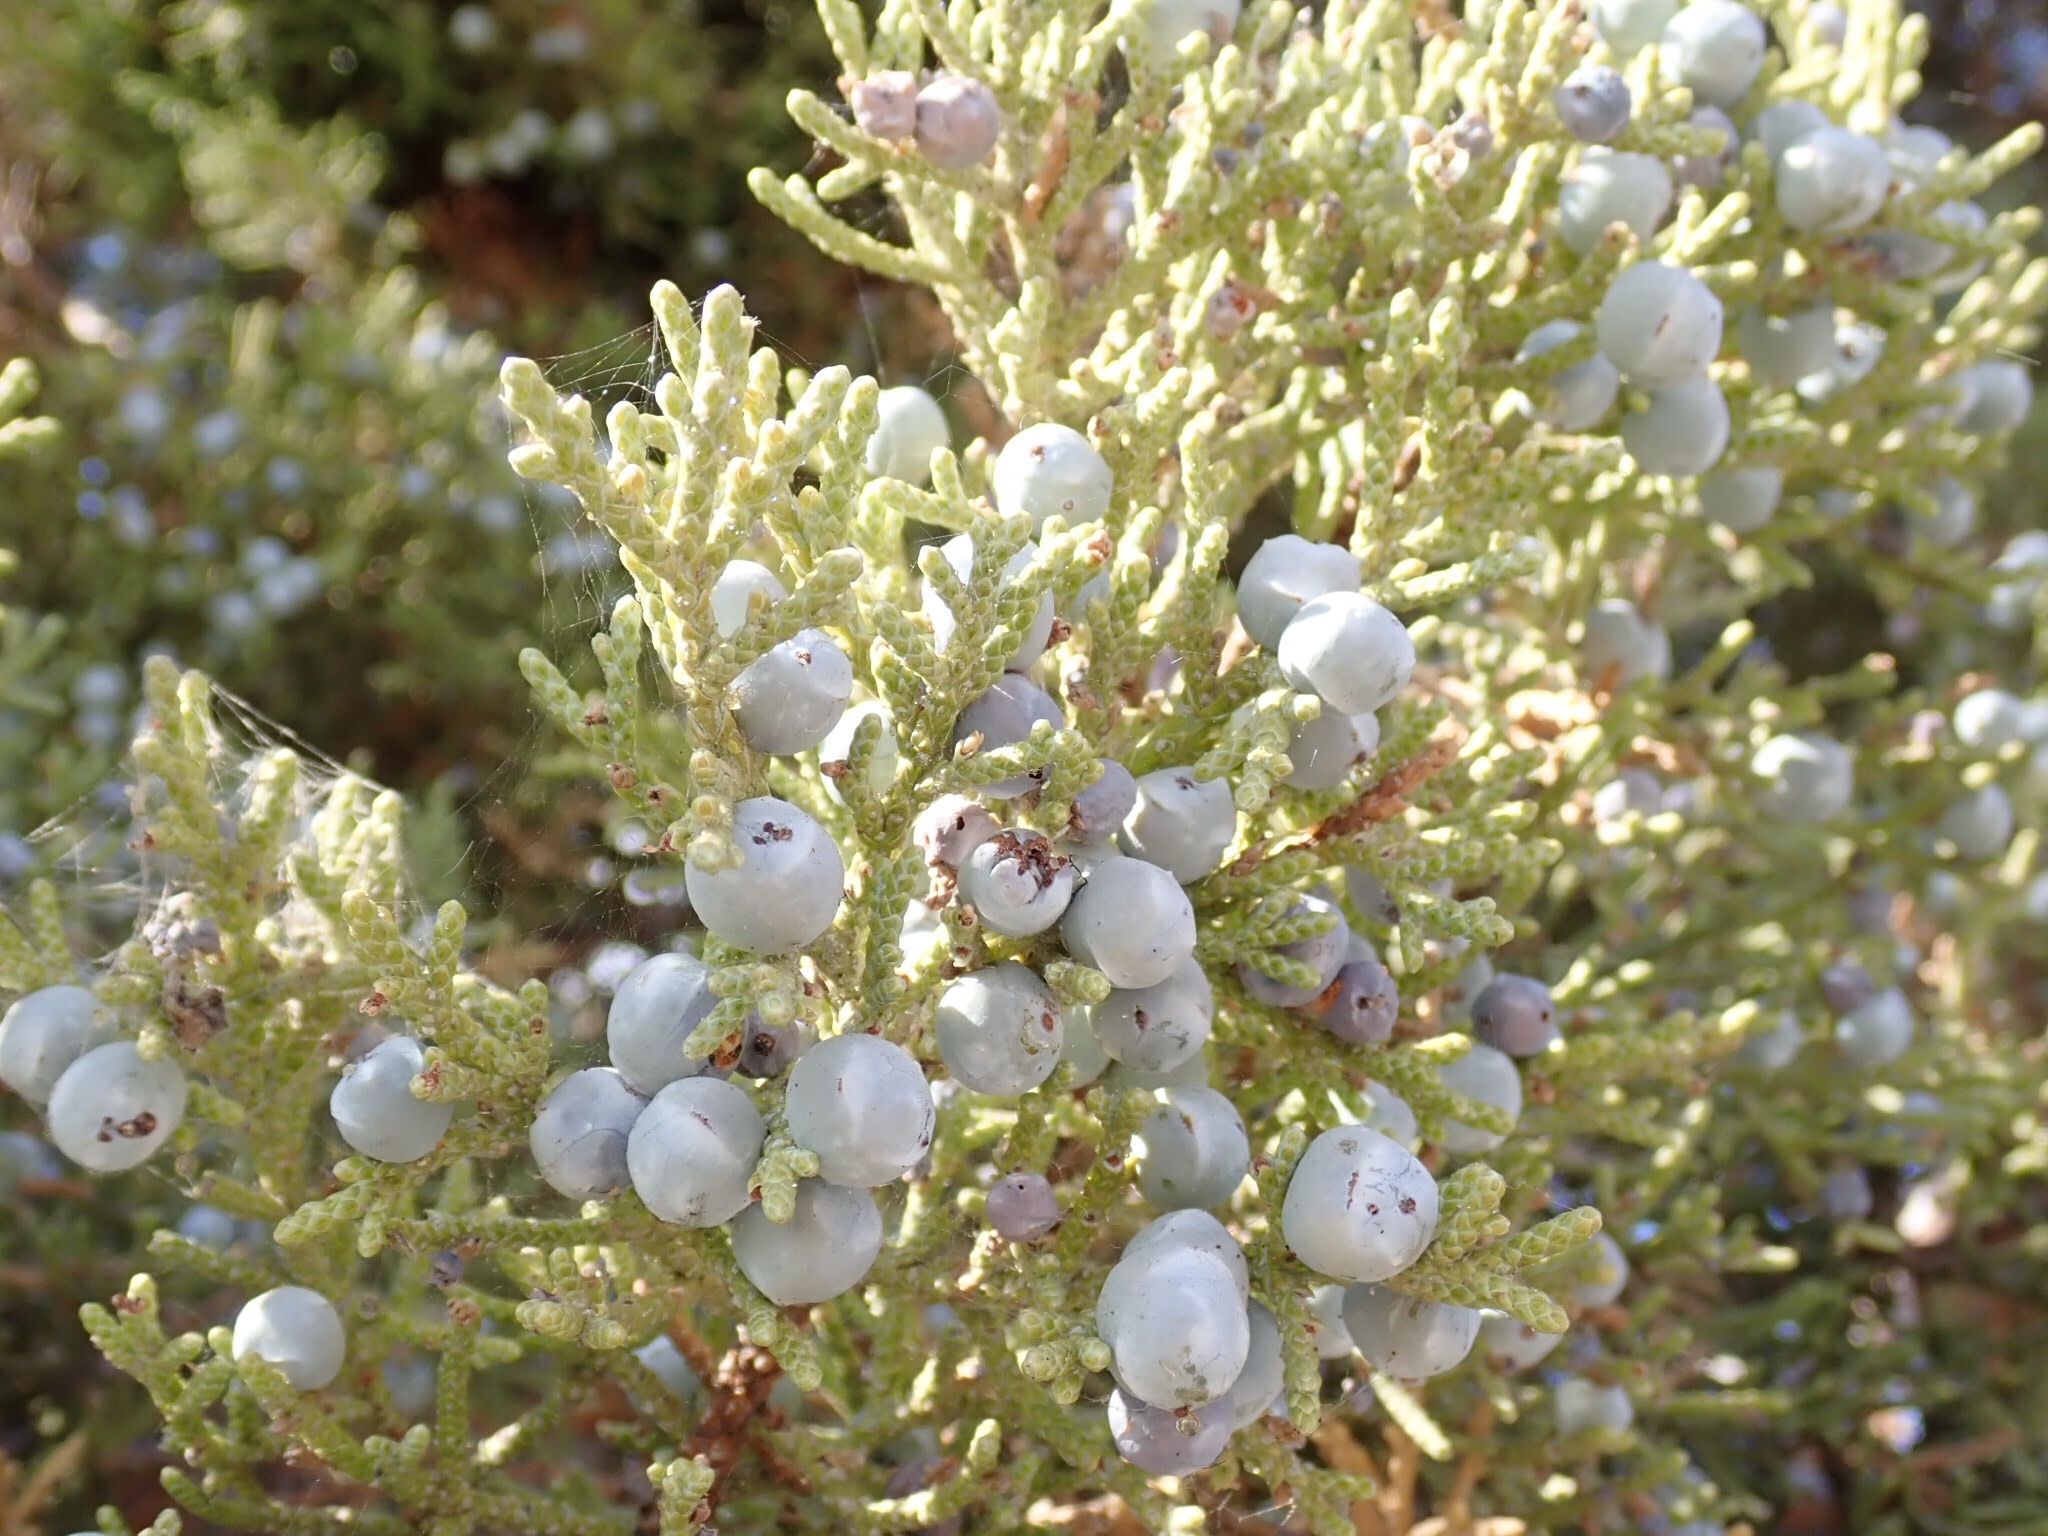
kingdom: Plantae
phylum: Tracheophyta
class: Pinopsida
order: Pinales
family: Cupressaceae
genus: Juniperus
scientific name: Juniperus occidentalis
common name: Western juniper
